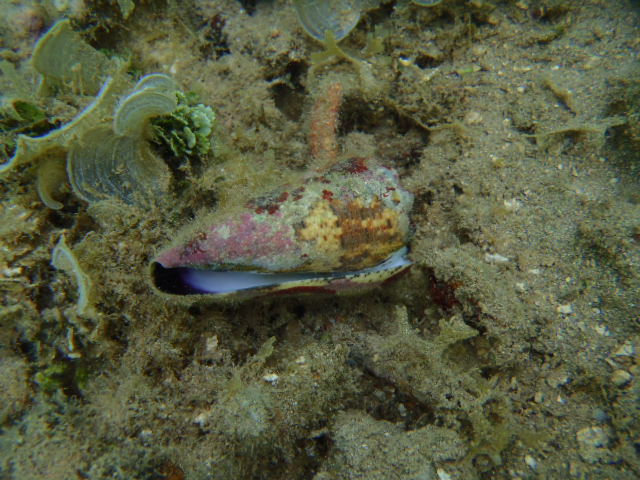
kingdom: Animalia
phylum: Mollusca
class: Gastropoda
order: Neogastropoda
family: Conidae
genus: Conus
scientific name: Conus imperialis
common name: Imperial cone
